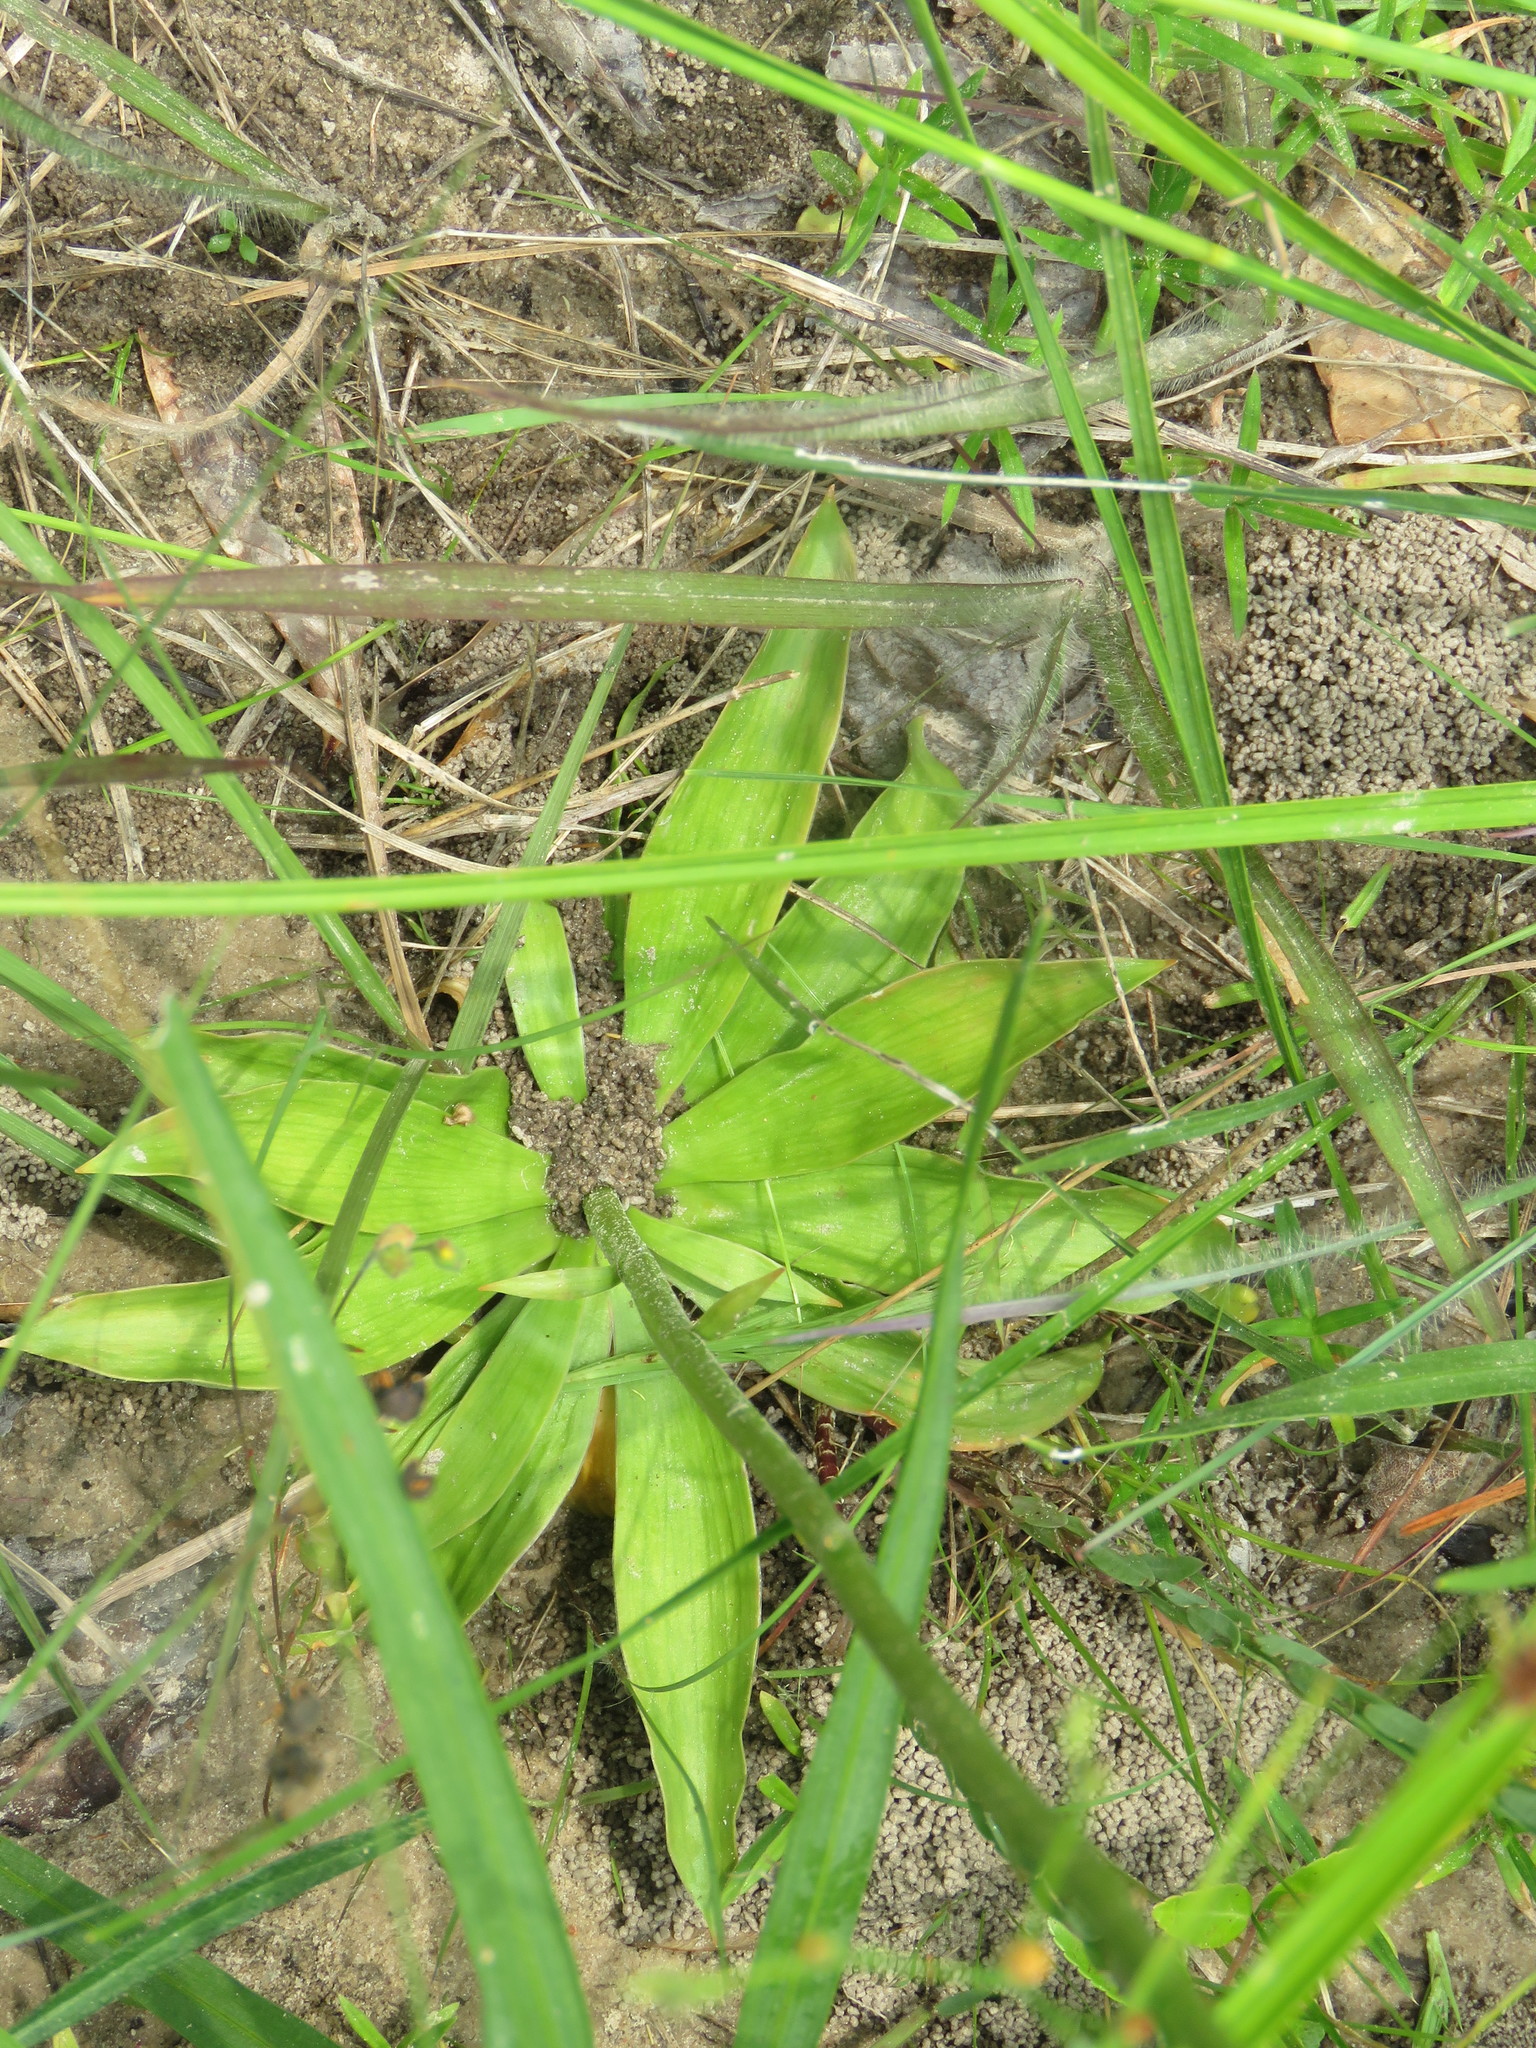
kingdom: Plantae
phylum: Tracheophyta
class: Liliopsida
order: Dioscoreales
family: Nartheciaceae
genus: Aletris
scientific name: Aletris aurea
